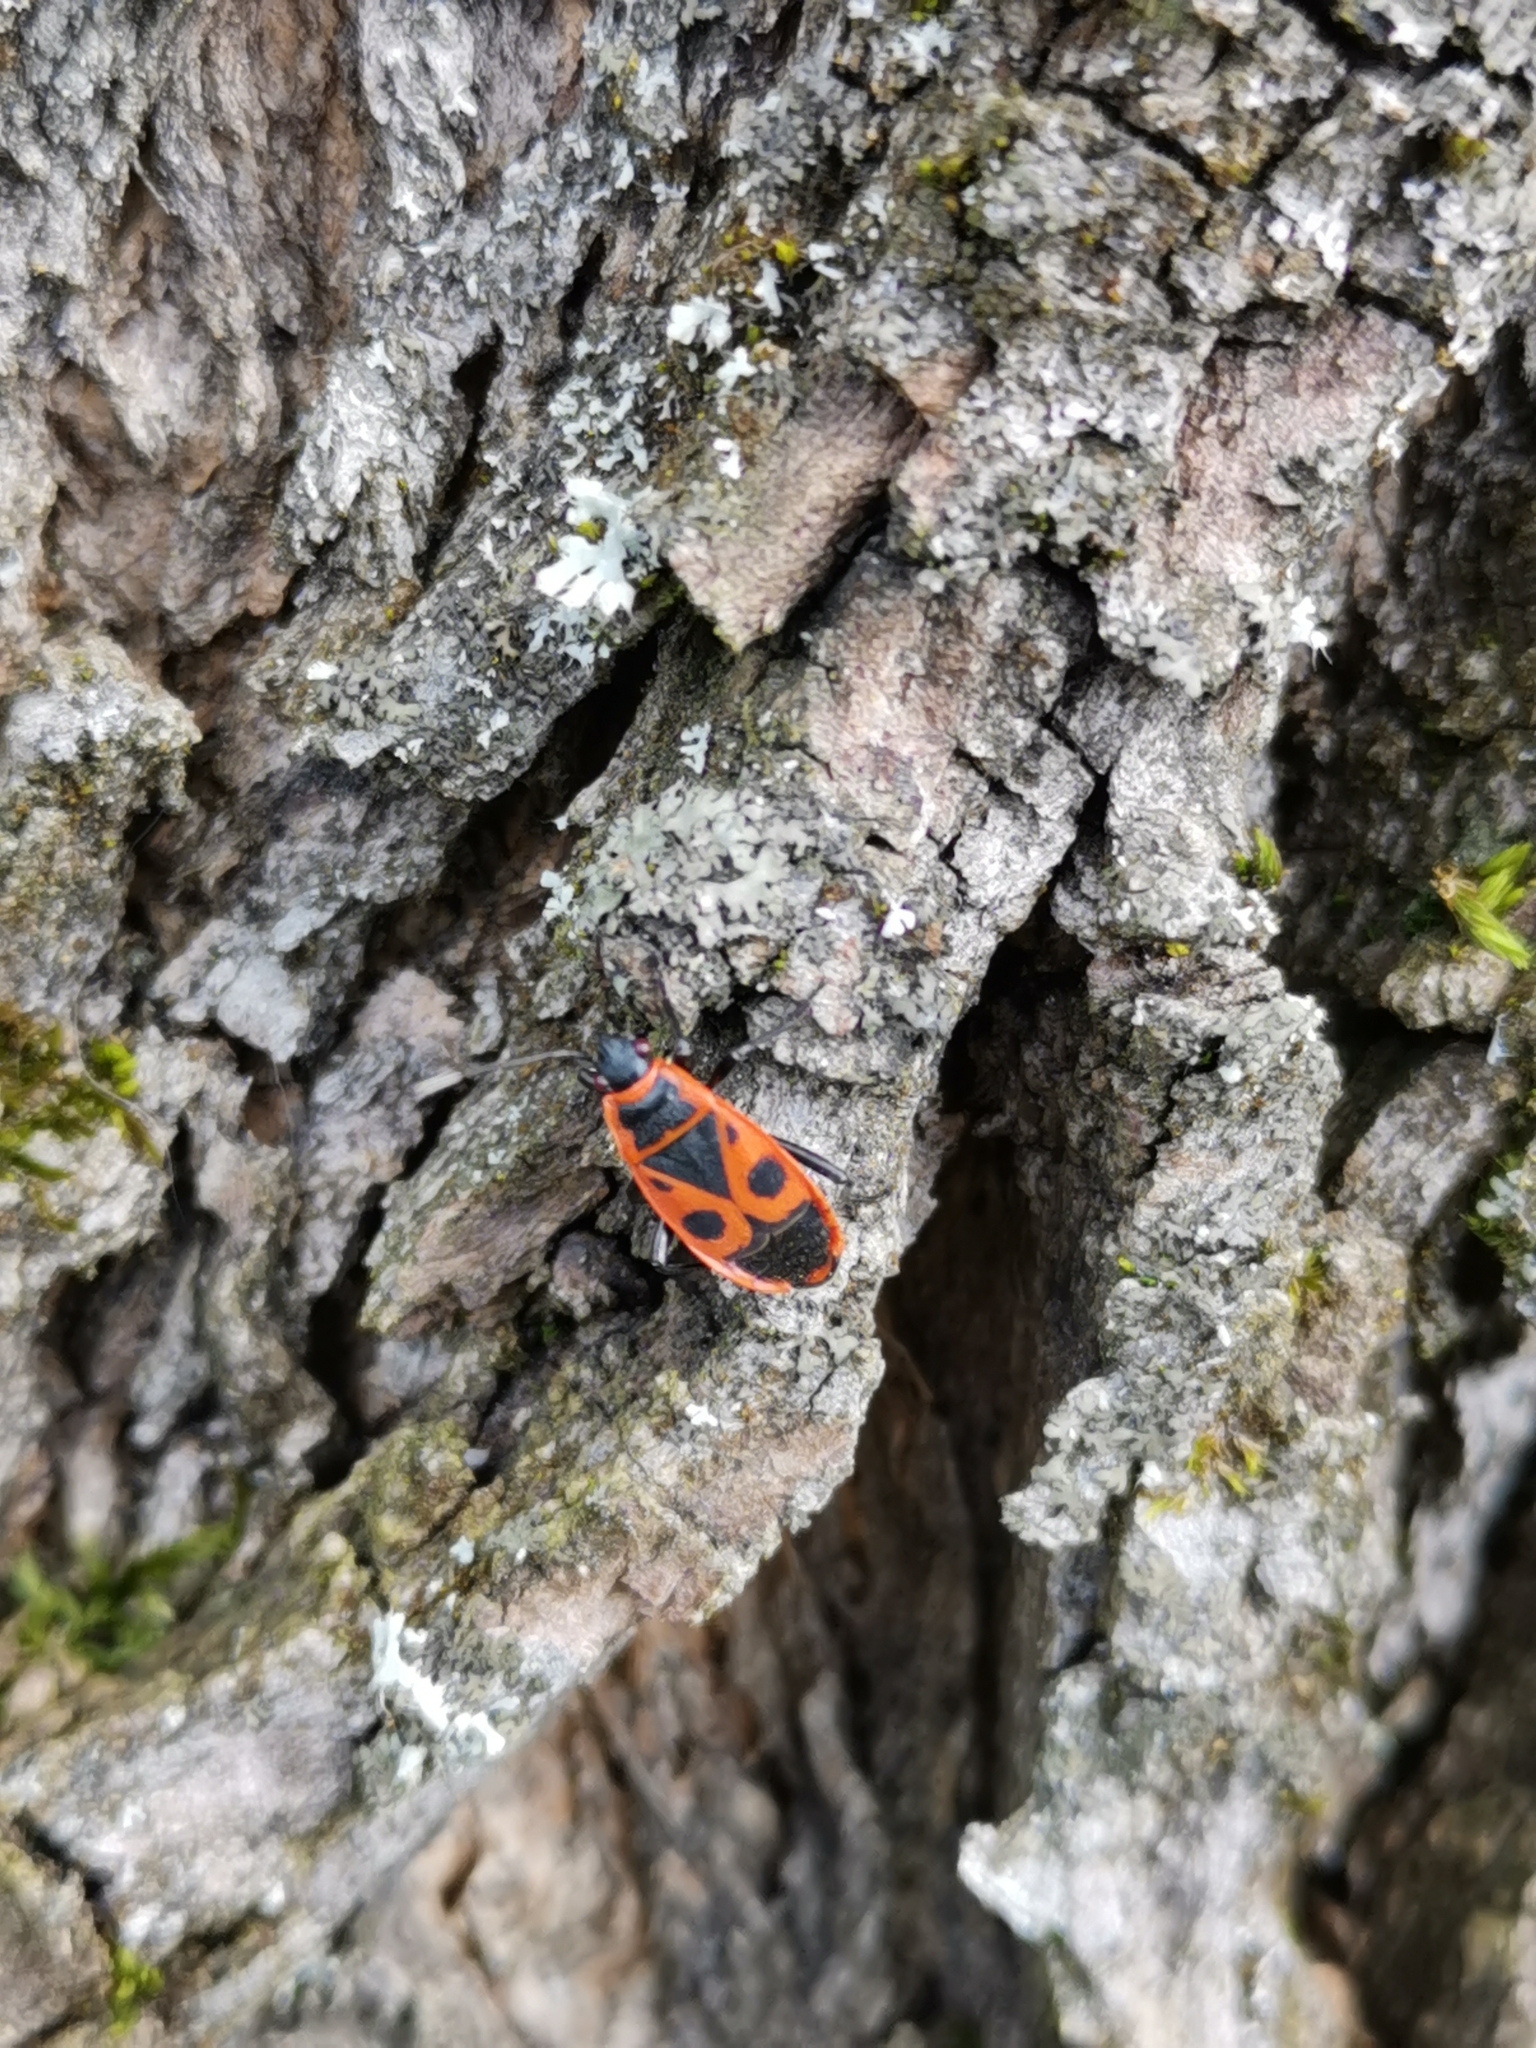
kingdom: Animalia
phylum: Arthropoda
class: Insecta
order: Hemiptera
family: Pyrrhocoridae
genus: Pyrrhocoris
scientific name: Pyrrhocoris apterus
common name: Firebug
